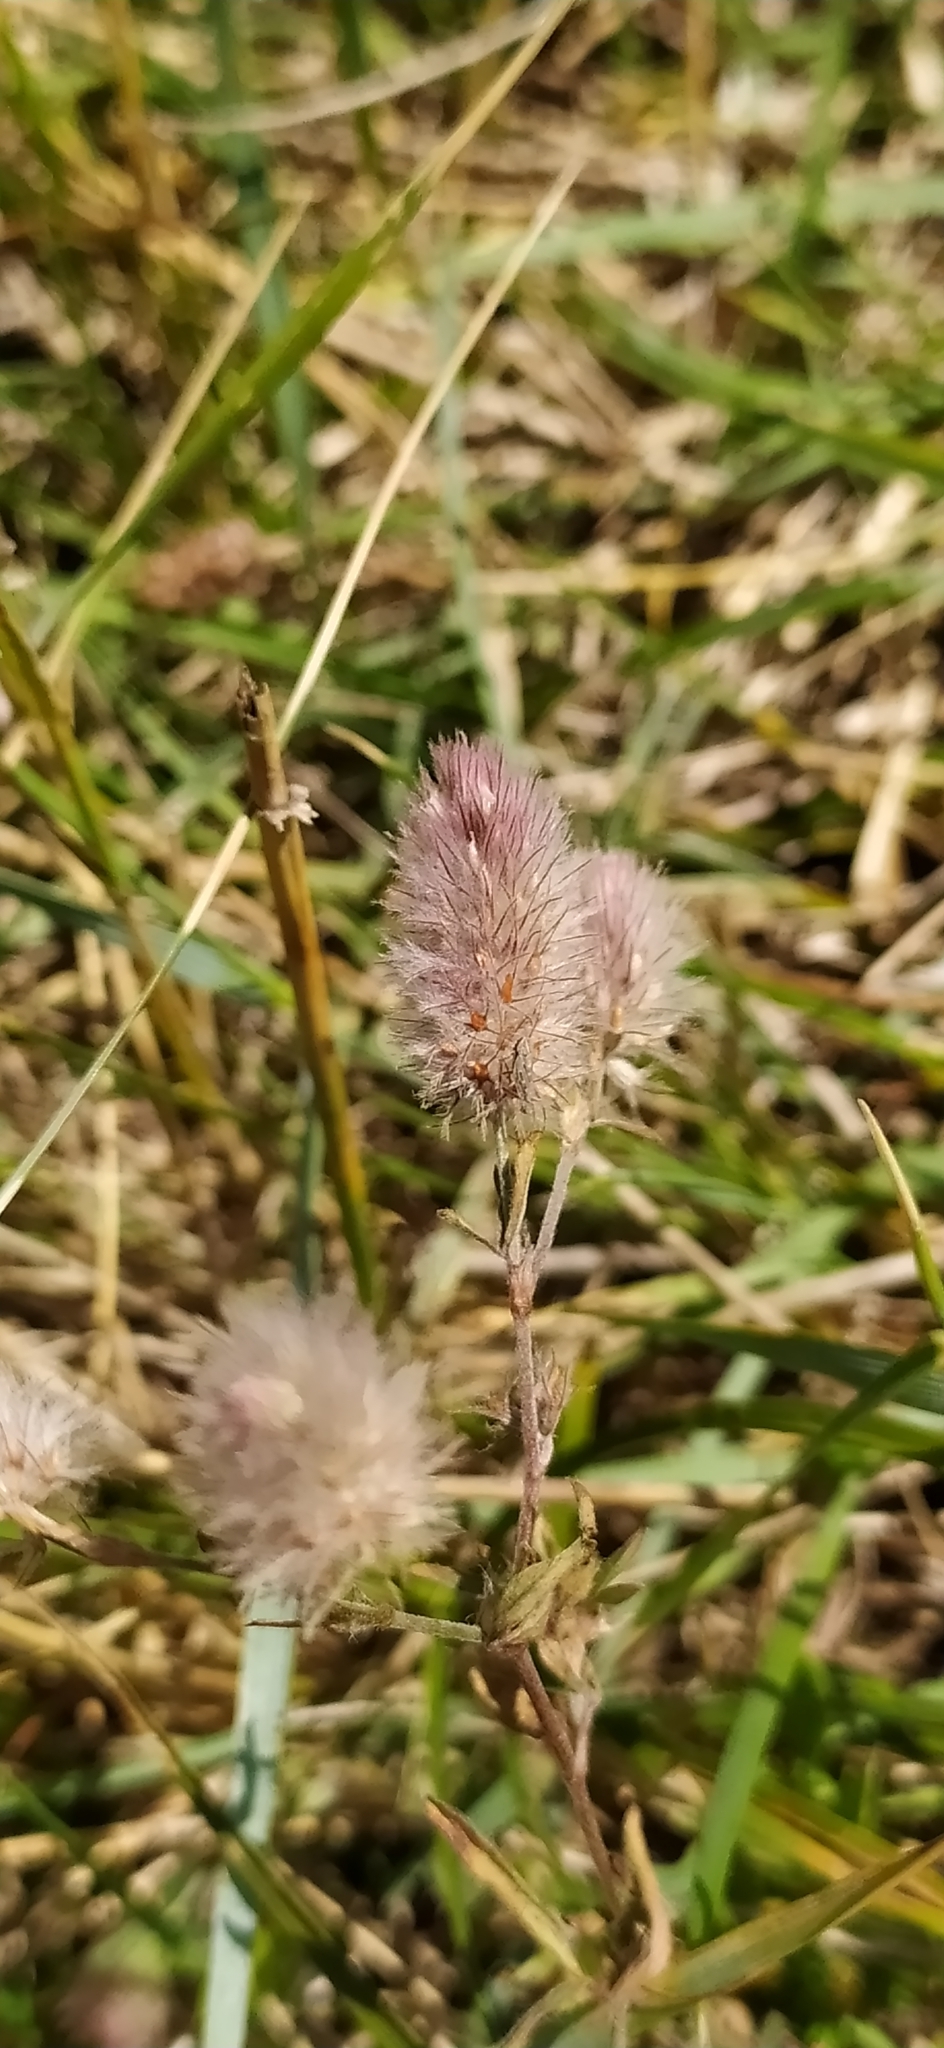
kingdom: Plantae
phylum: Tracheophyta
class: Magnoliopsida
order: Fabales
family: Fabaceae
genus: Trifolium
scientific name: Trifolium arvense
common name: Hare's-foot clover
